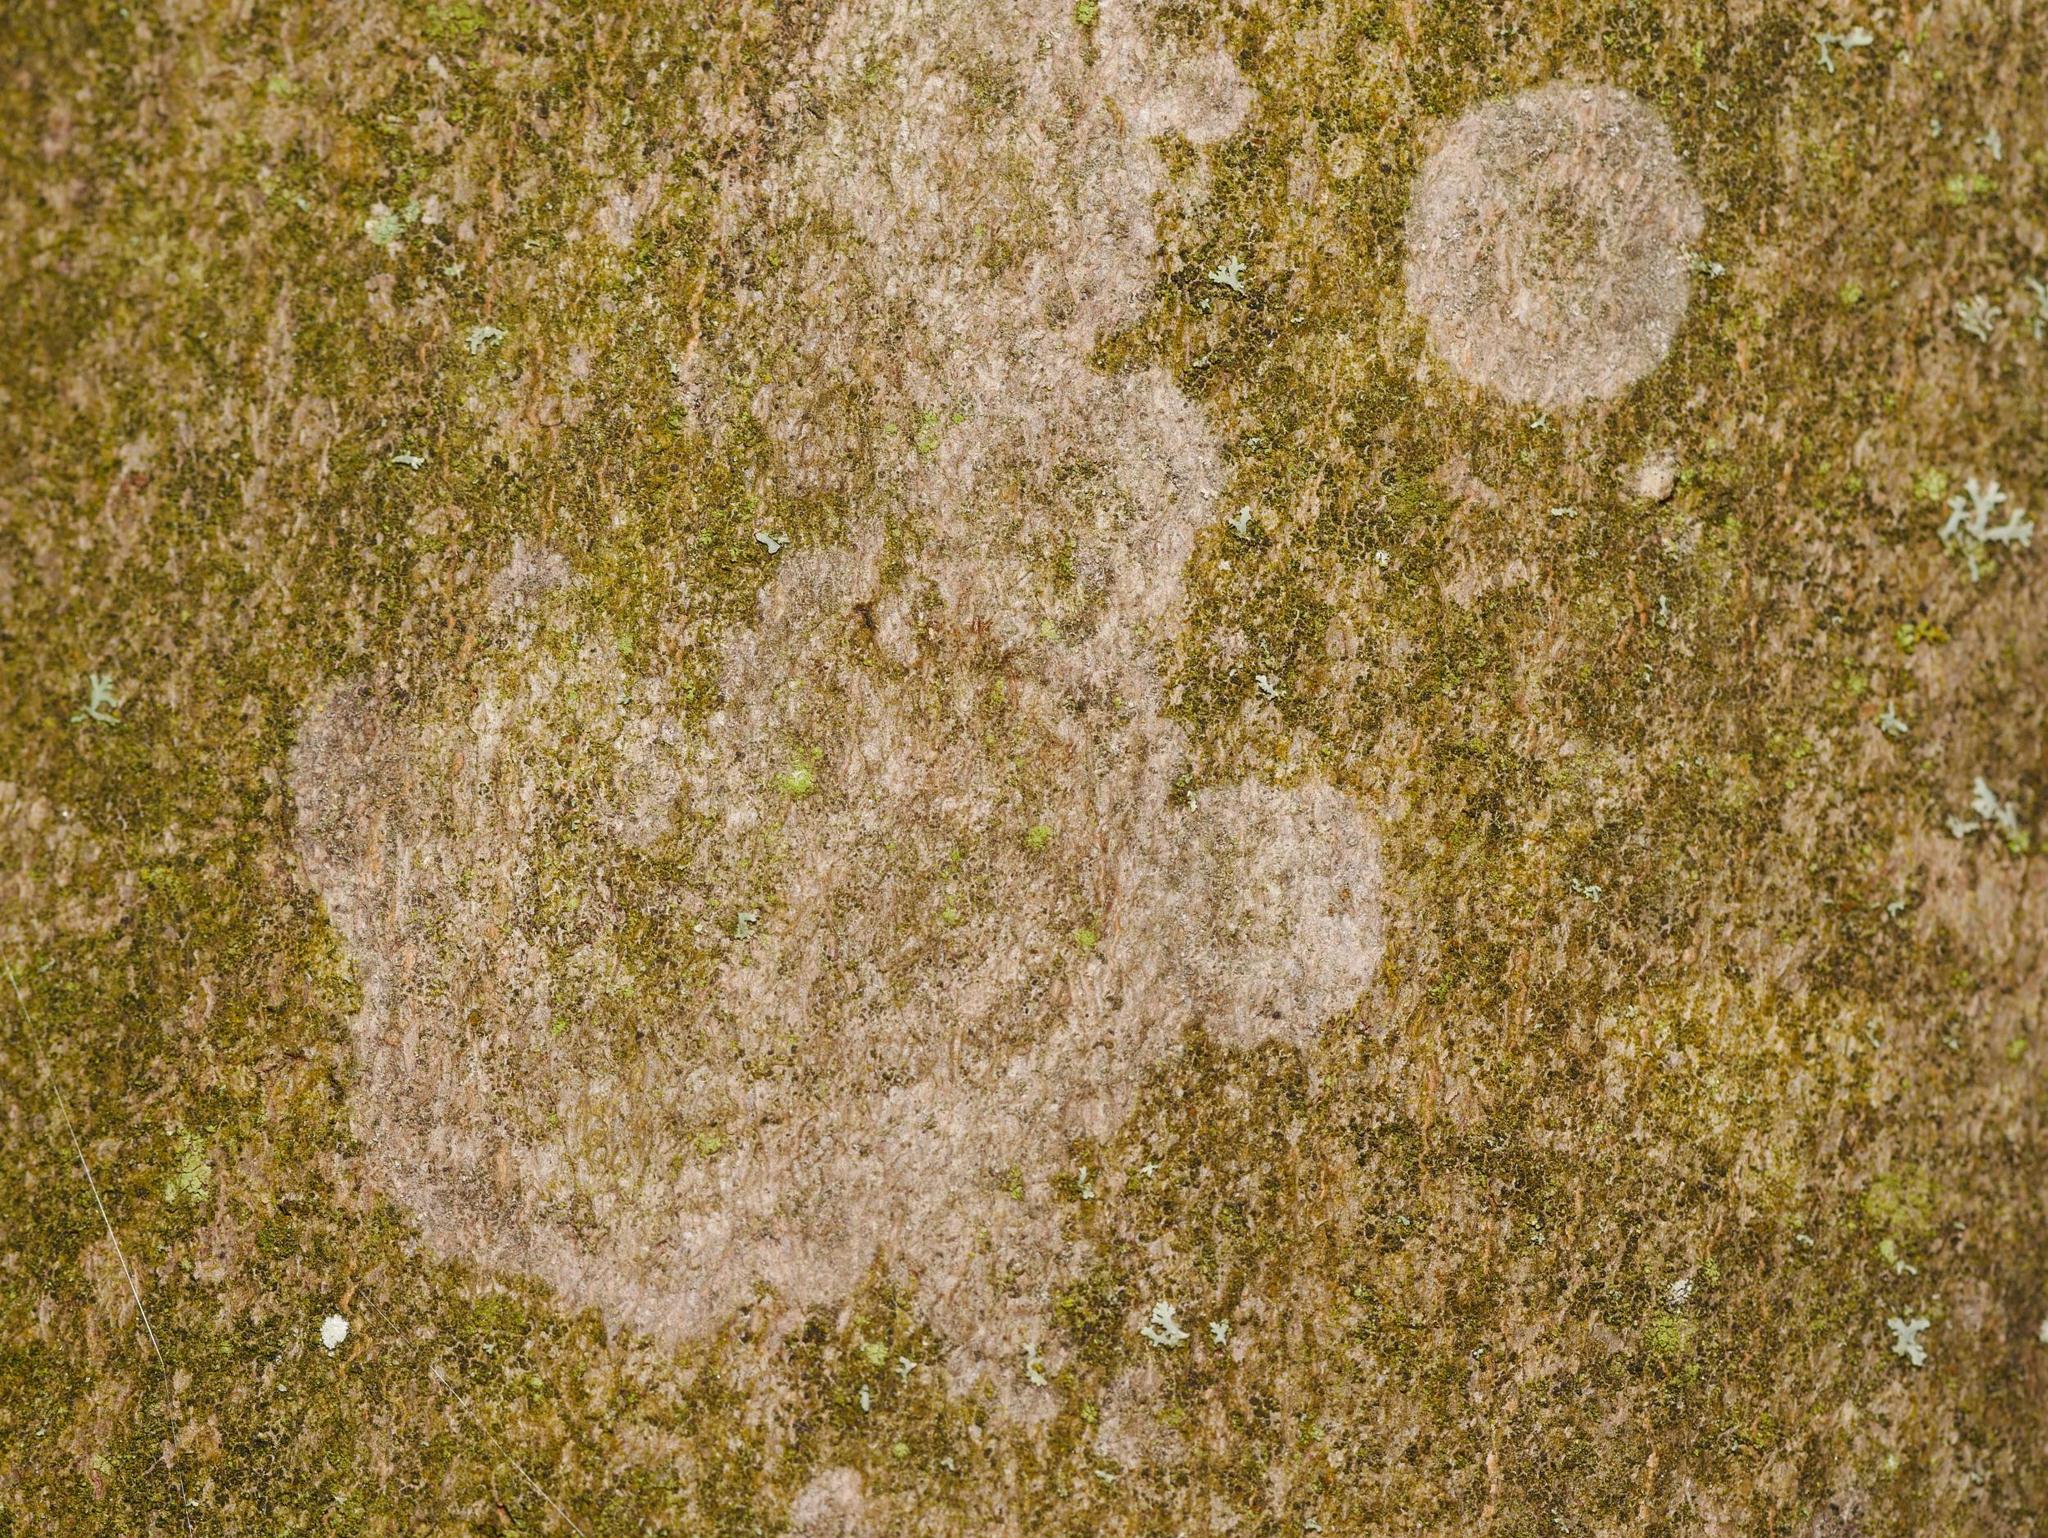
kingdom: Fungi
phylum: Basidiomycota
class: Agaricomycetes
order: Atheliales
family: Atheliaceae
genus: Athelia
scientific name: Athelia arachnoidea
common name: Candelabra duster
